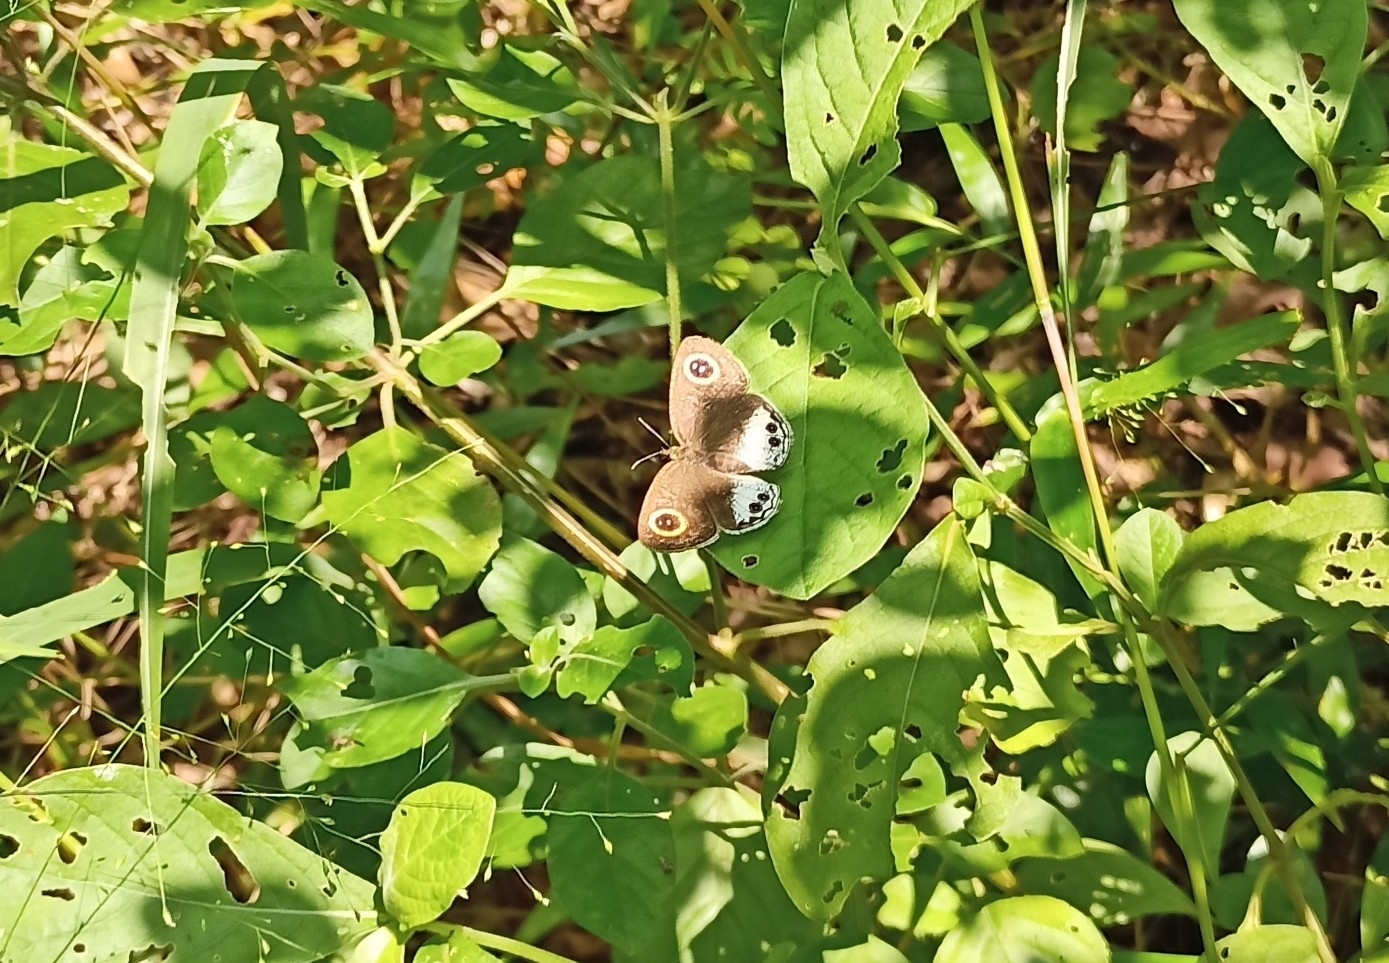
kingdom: Animalia
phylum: Arthropoda
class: Insecta
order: Lepidoptera
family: Nymphalidae
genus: Ypthima
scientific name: Ypthima ceylonica
